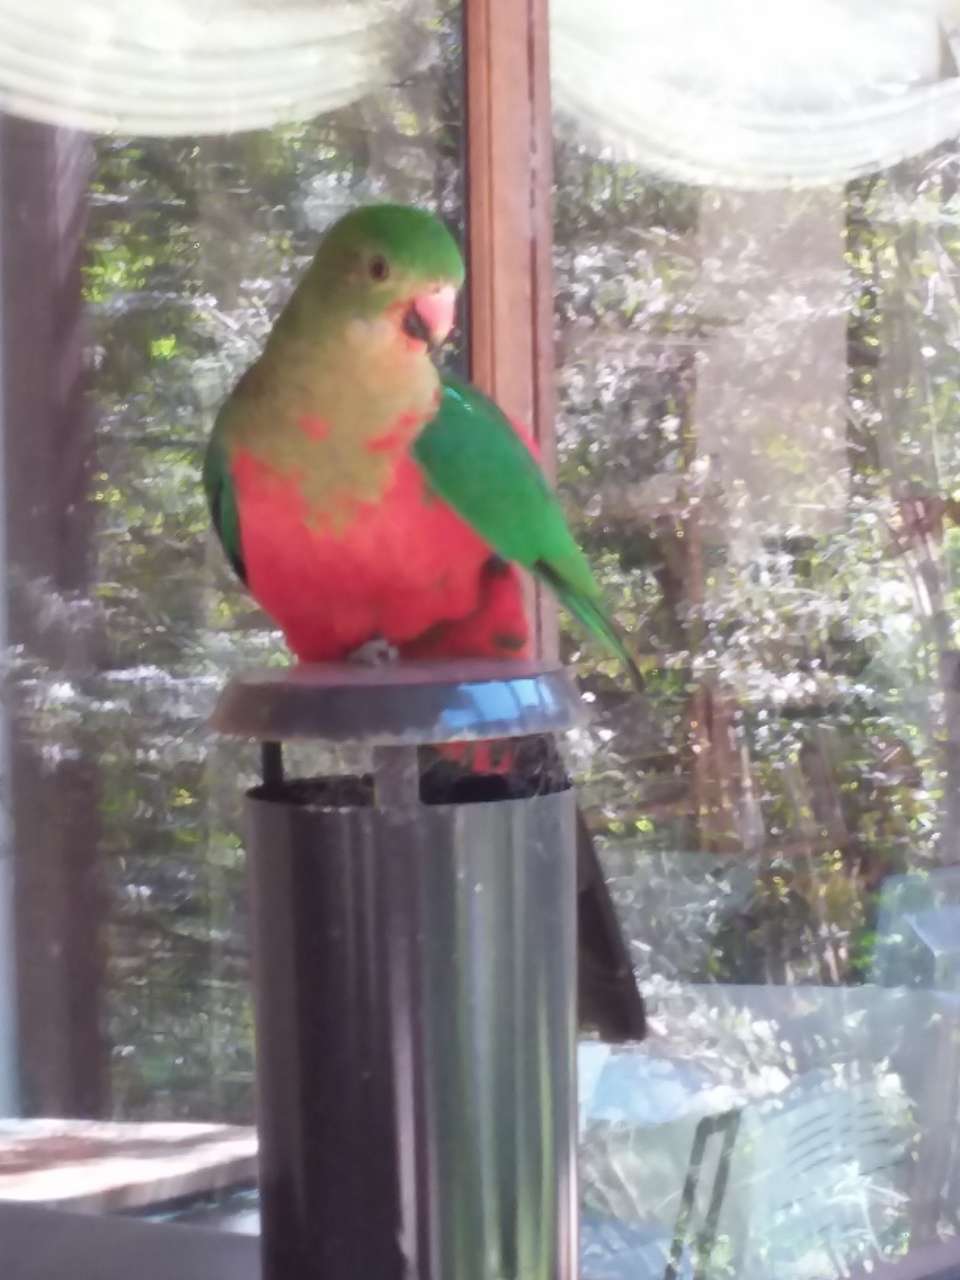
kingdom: Animalia
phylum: Chordata
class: Aves
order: Psittaciformes
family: Psittacidae
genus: Alisterus
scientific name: Alisterus scapularis
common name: Australian king parrot
